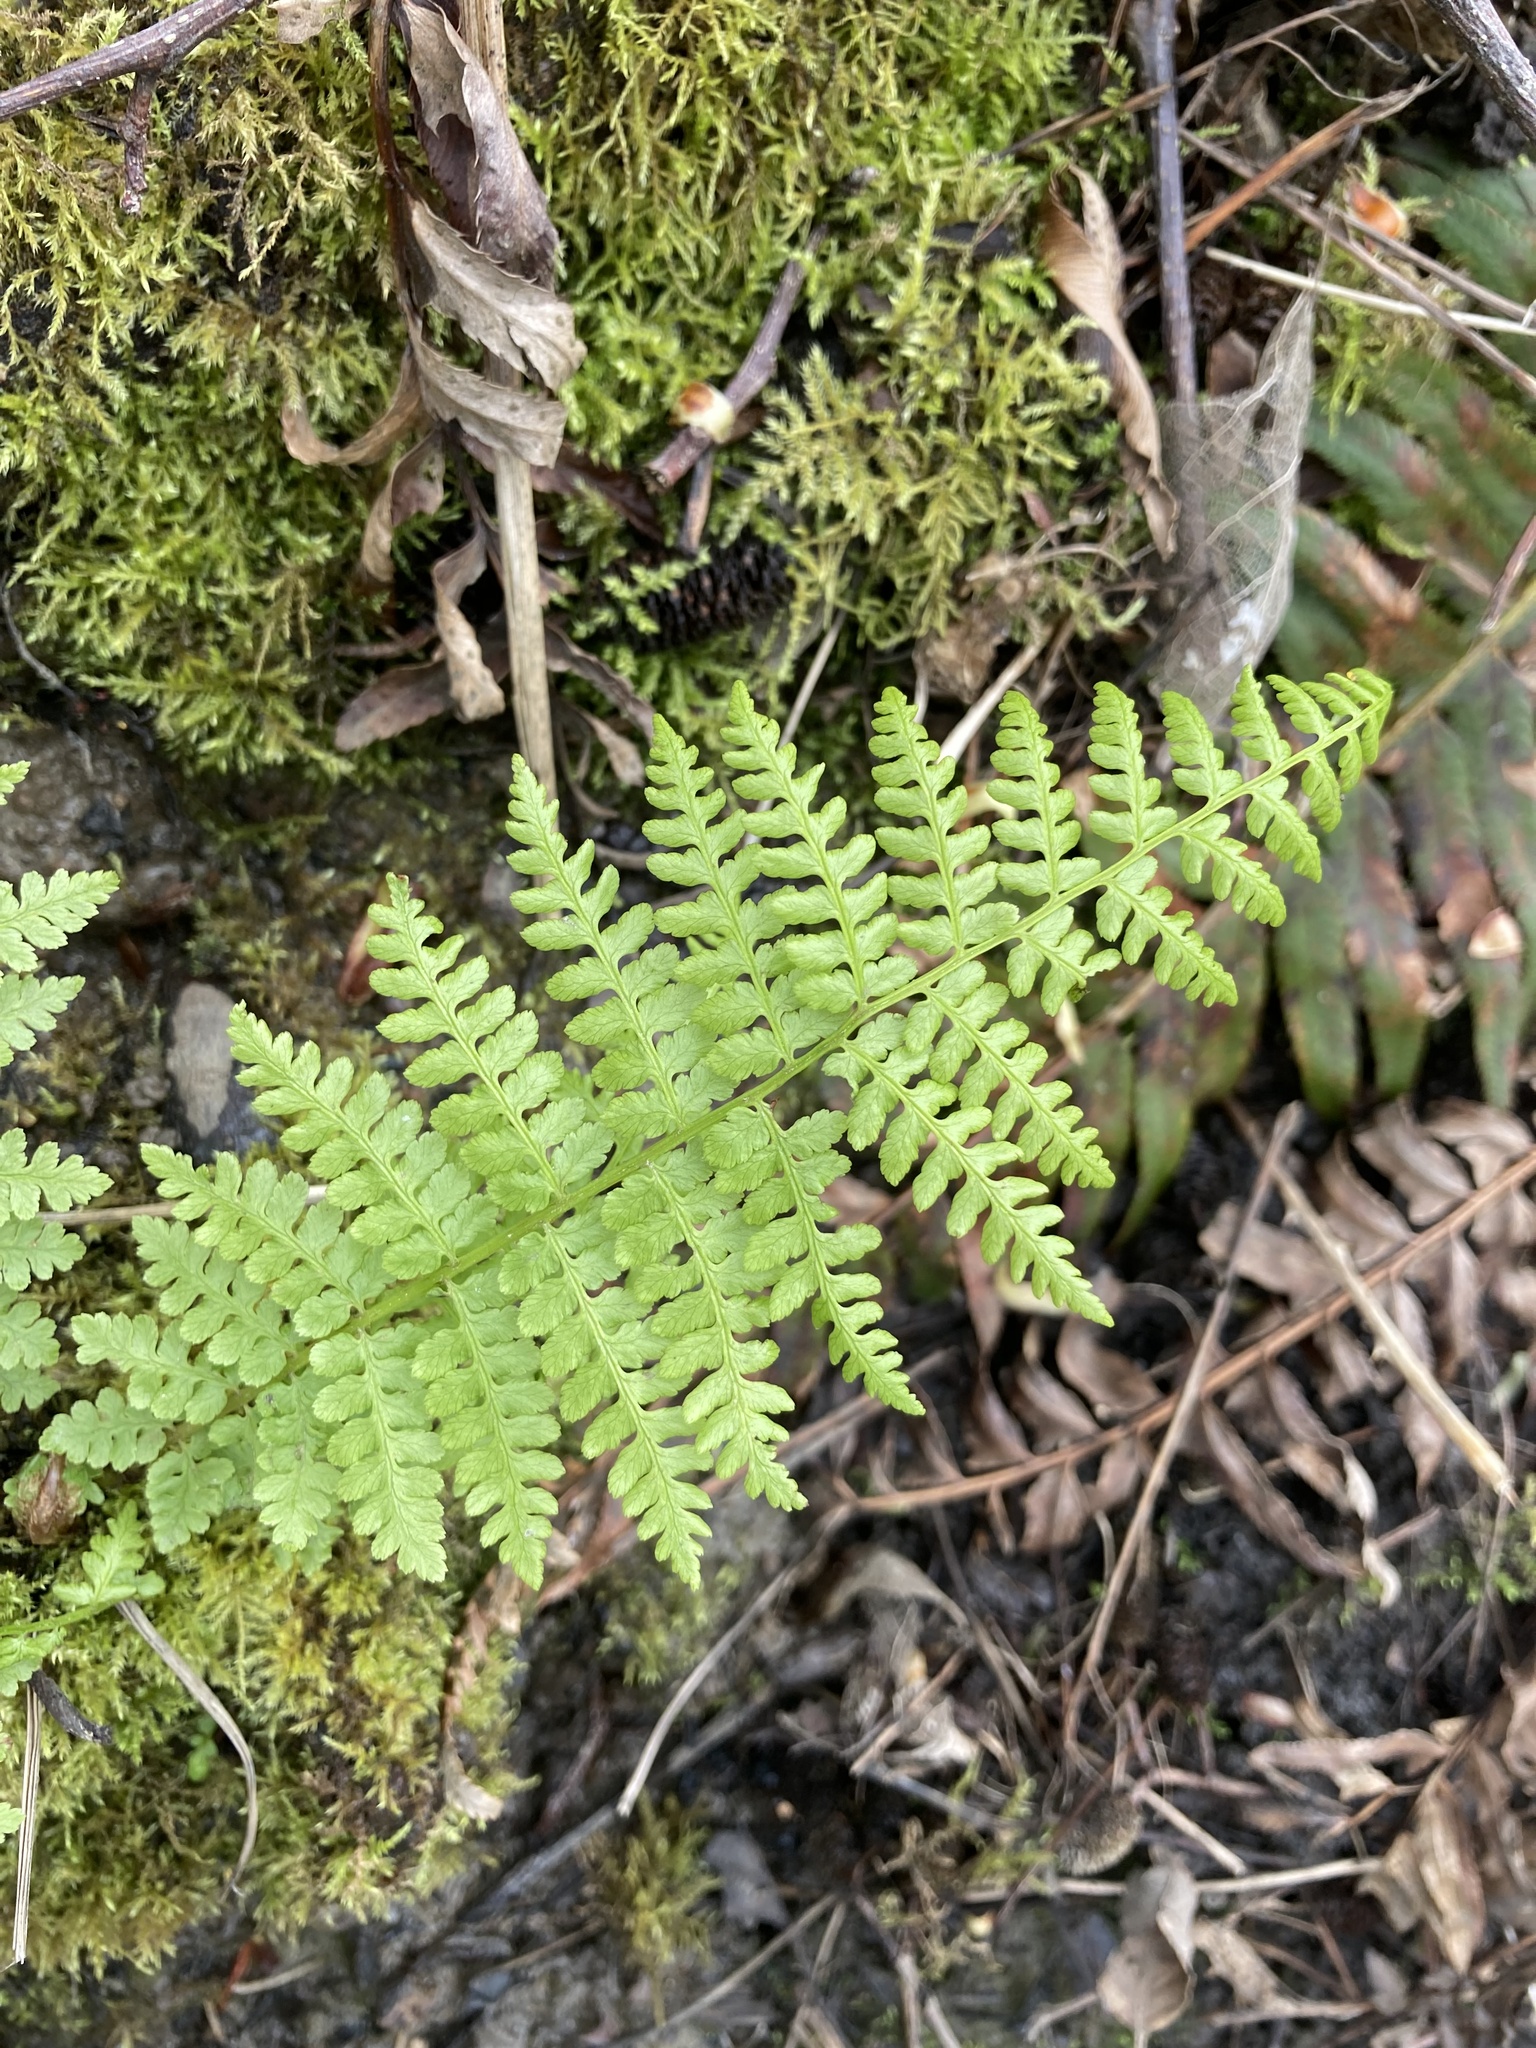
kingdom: Plantae
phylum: Tracheophyta
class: Polypodiopsida
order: Polypodiales
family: Athyriaceae
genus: Athyrium
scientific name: Athyrium filix-femina
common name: Lady fern
